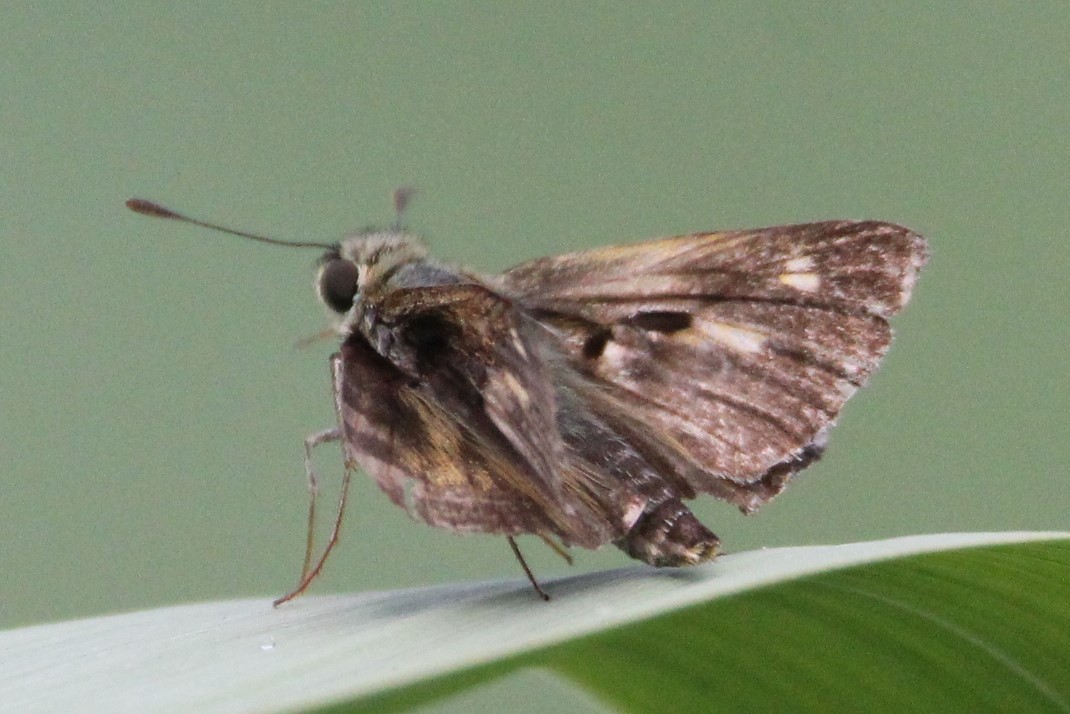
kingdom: Animalia
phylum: Arthropoda
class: Insecta
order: Lepidoptera
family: Hesperiidae
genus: Polites
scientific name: Polites egeremet
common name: Northern broken-dash
